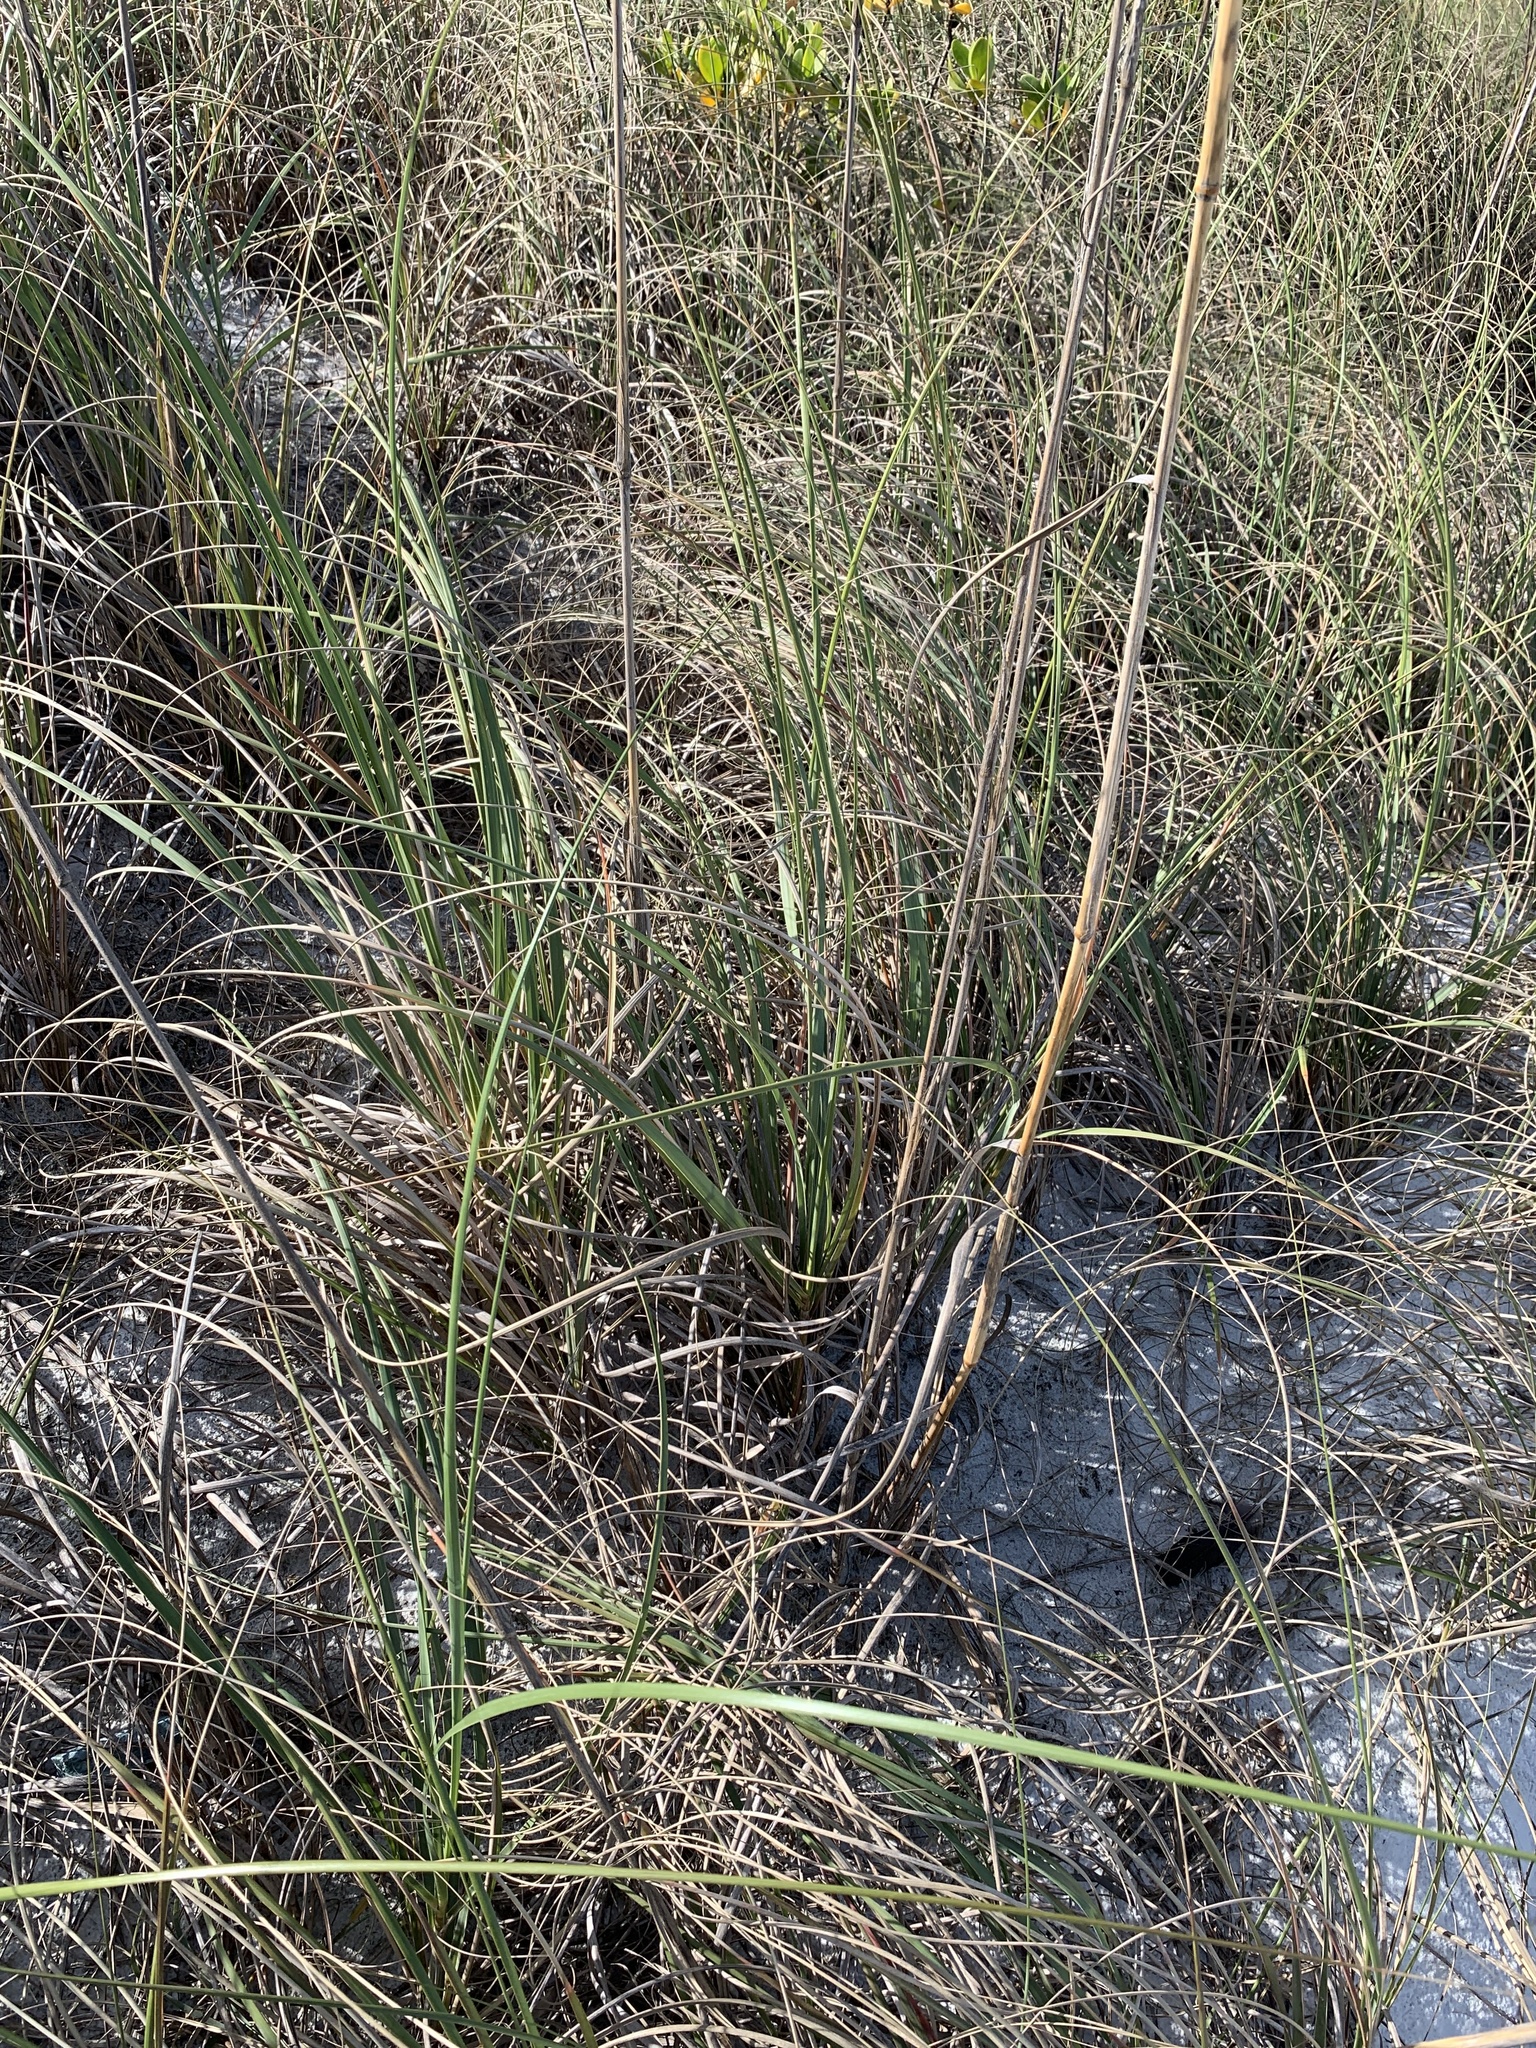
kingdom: Plantae
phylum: Tracheophyta
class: Liliopsida
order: Poales
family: Poaceae
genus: Uniola
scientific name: Uniola paniculata
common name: Seaside-oats
